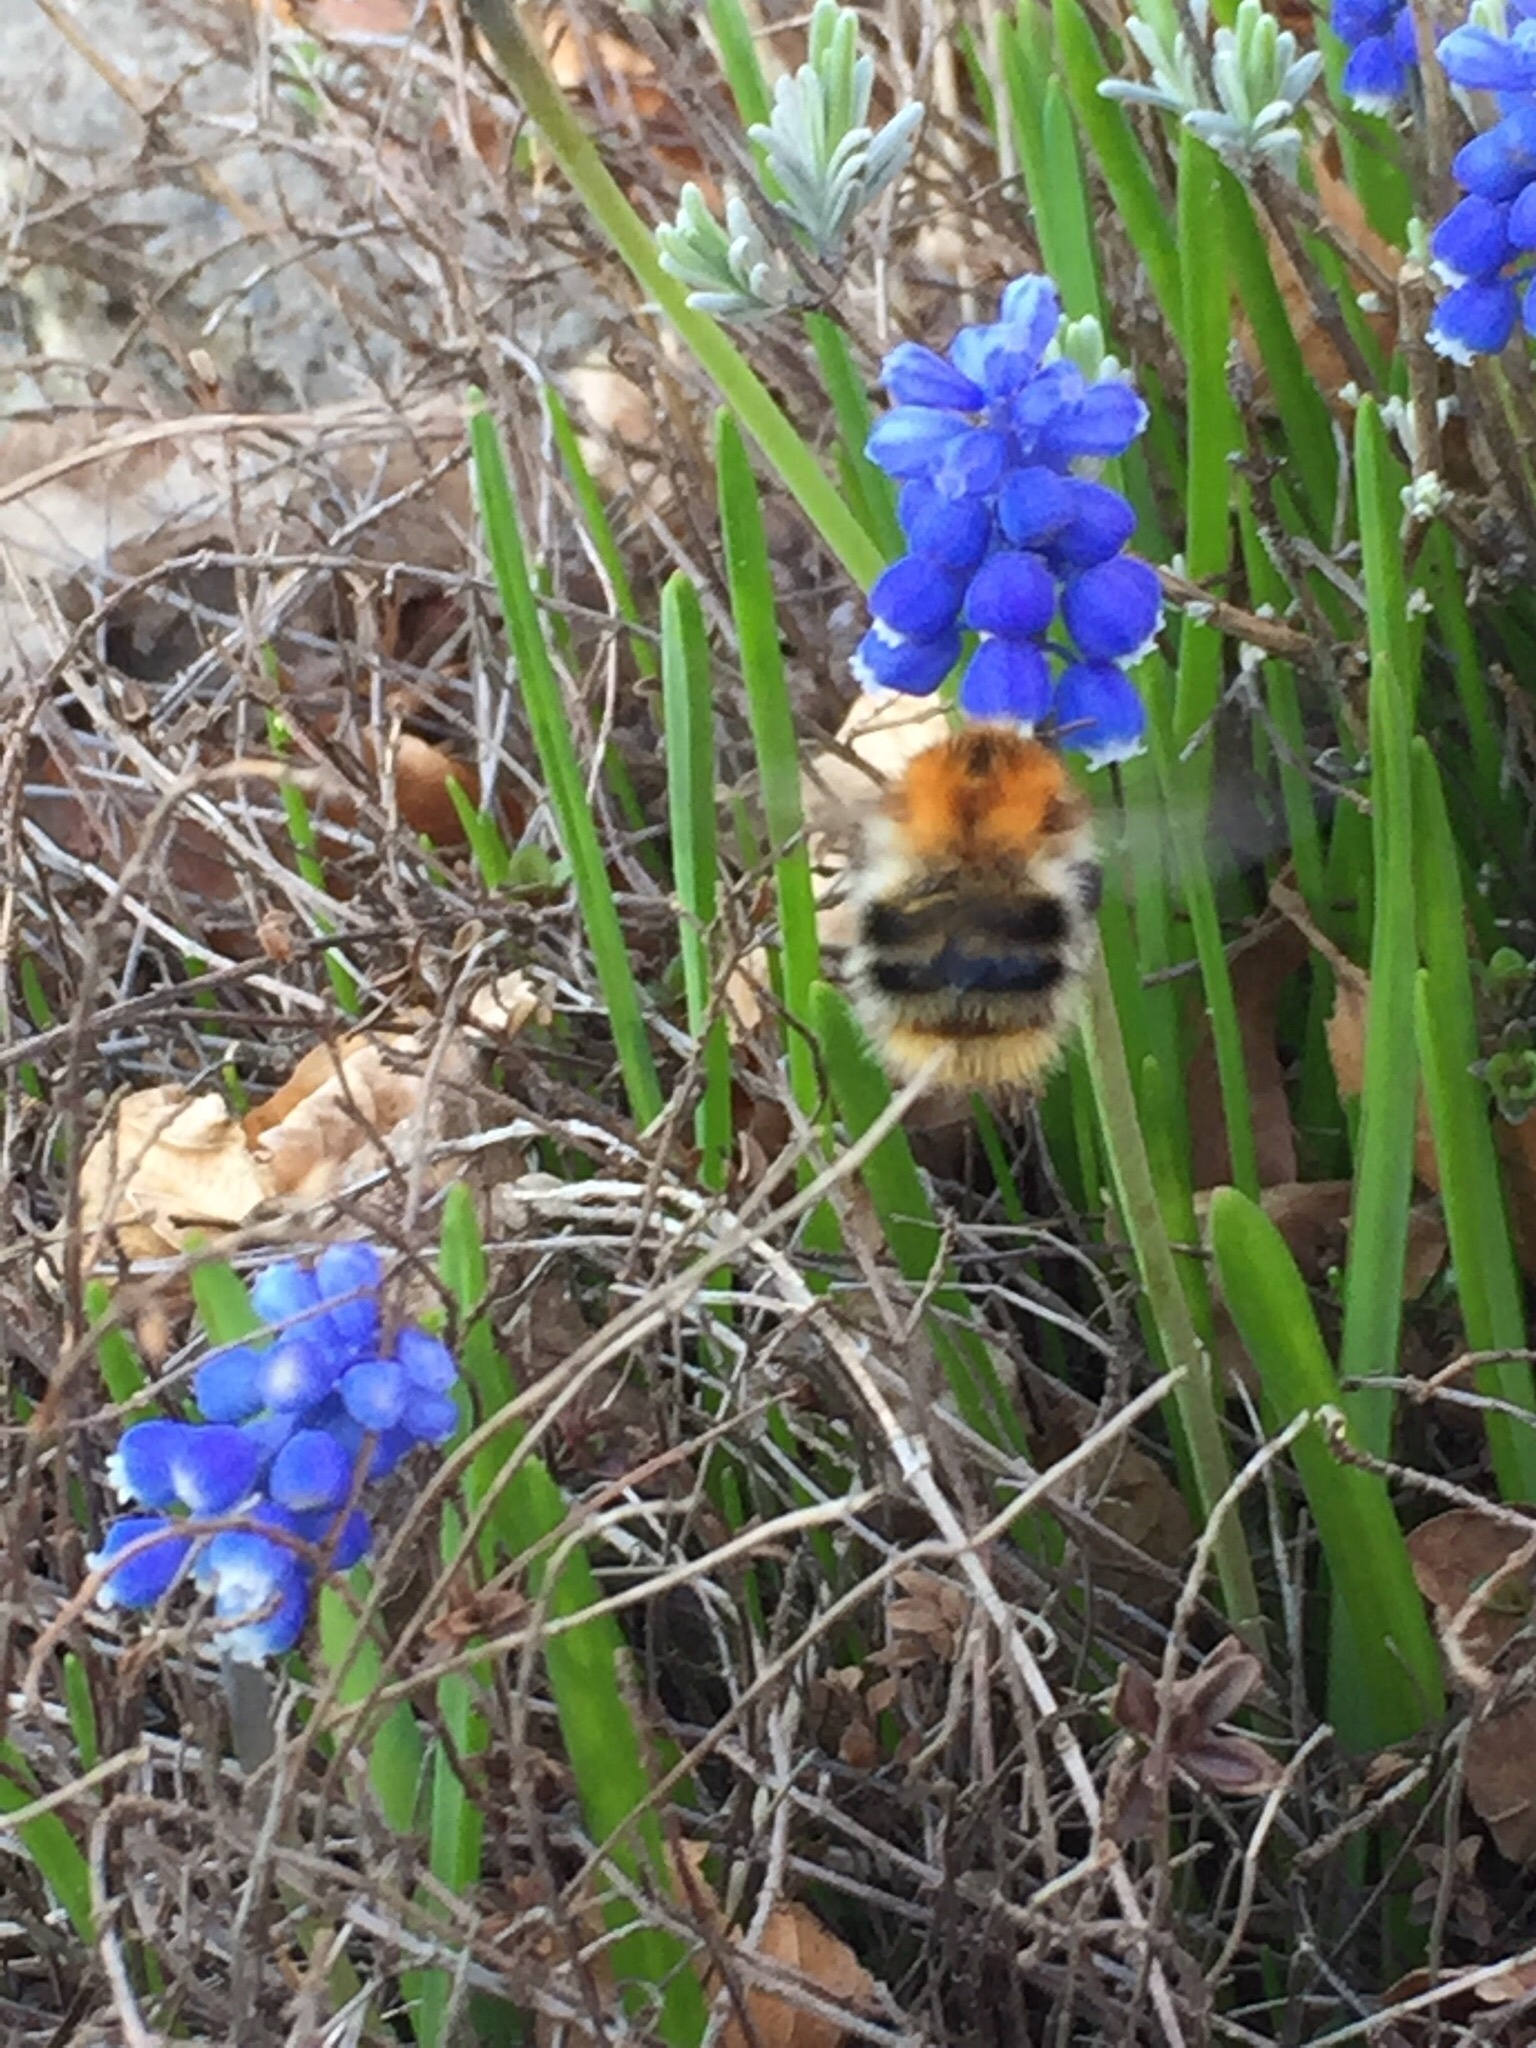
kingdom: Animalia
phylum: Arthropoda
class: Insecta
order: Hymenoptera
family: Apidae
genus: Bombus
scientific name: Bombus pascuorum
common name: Common carder bee
